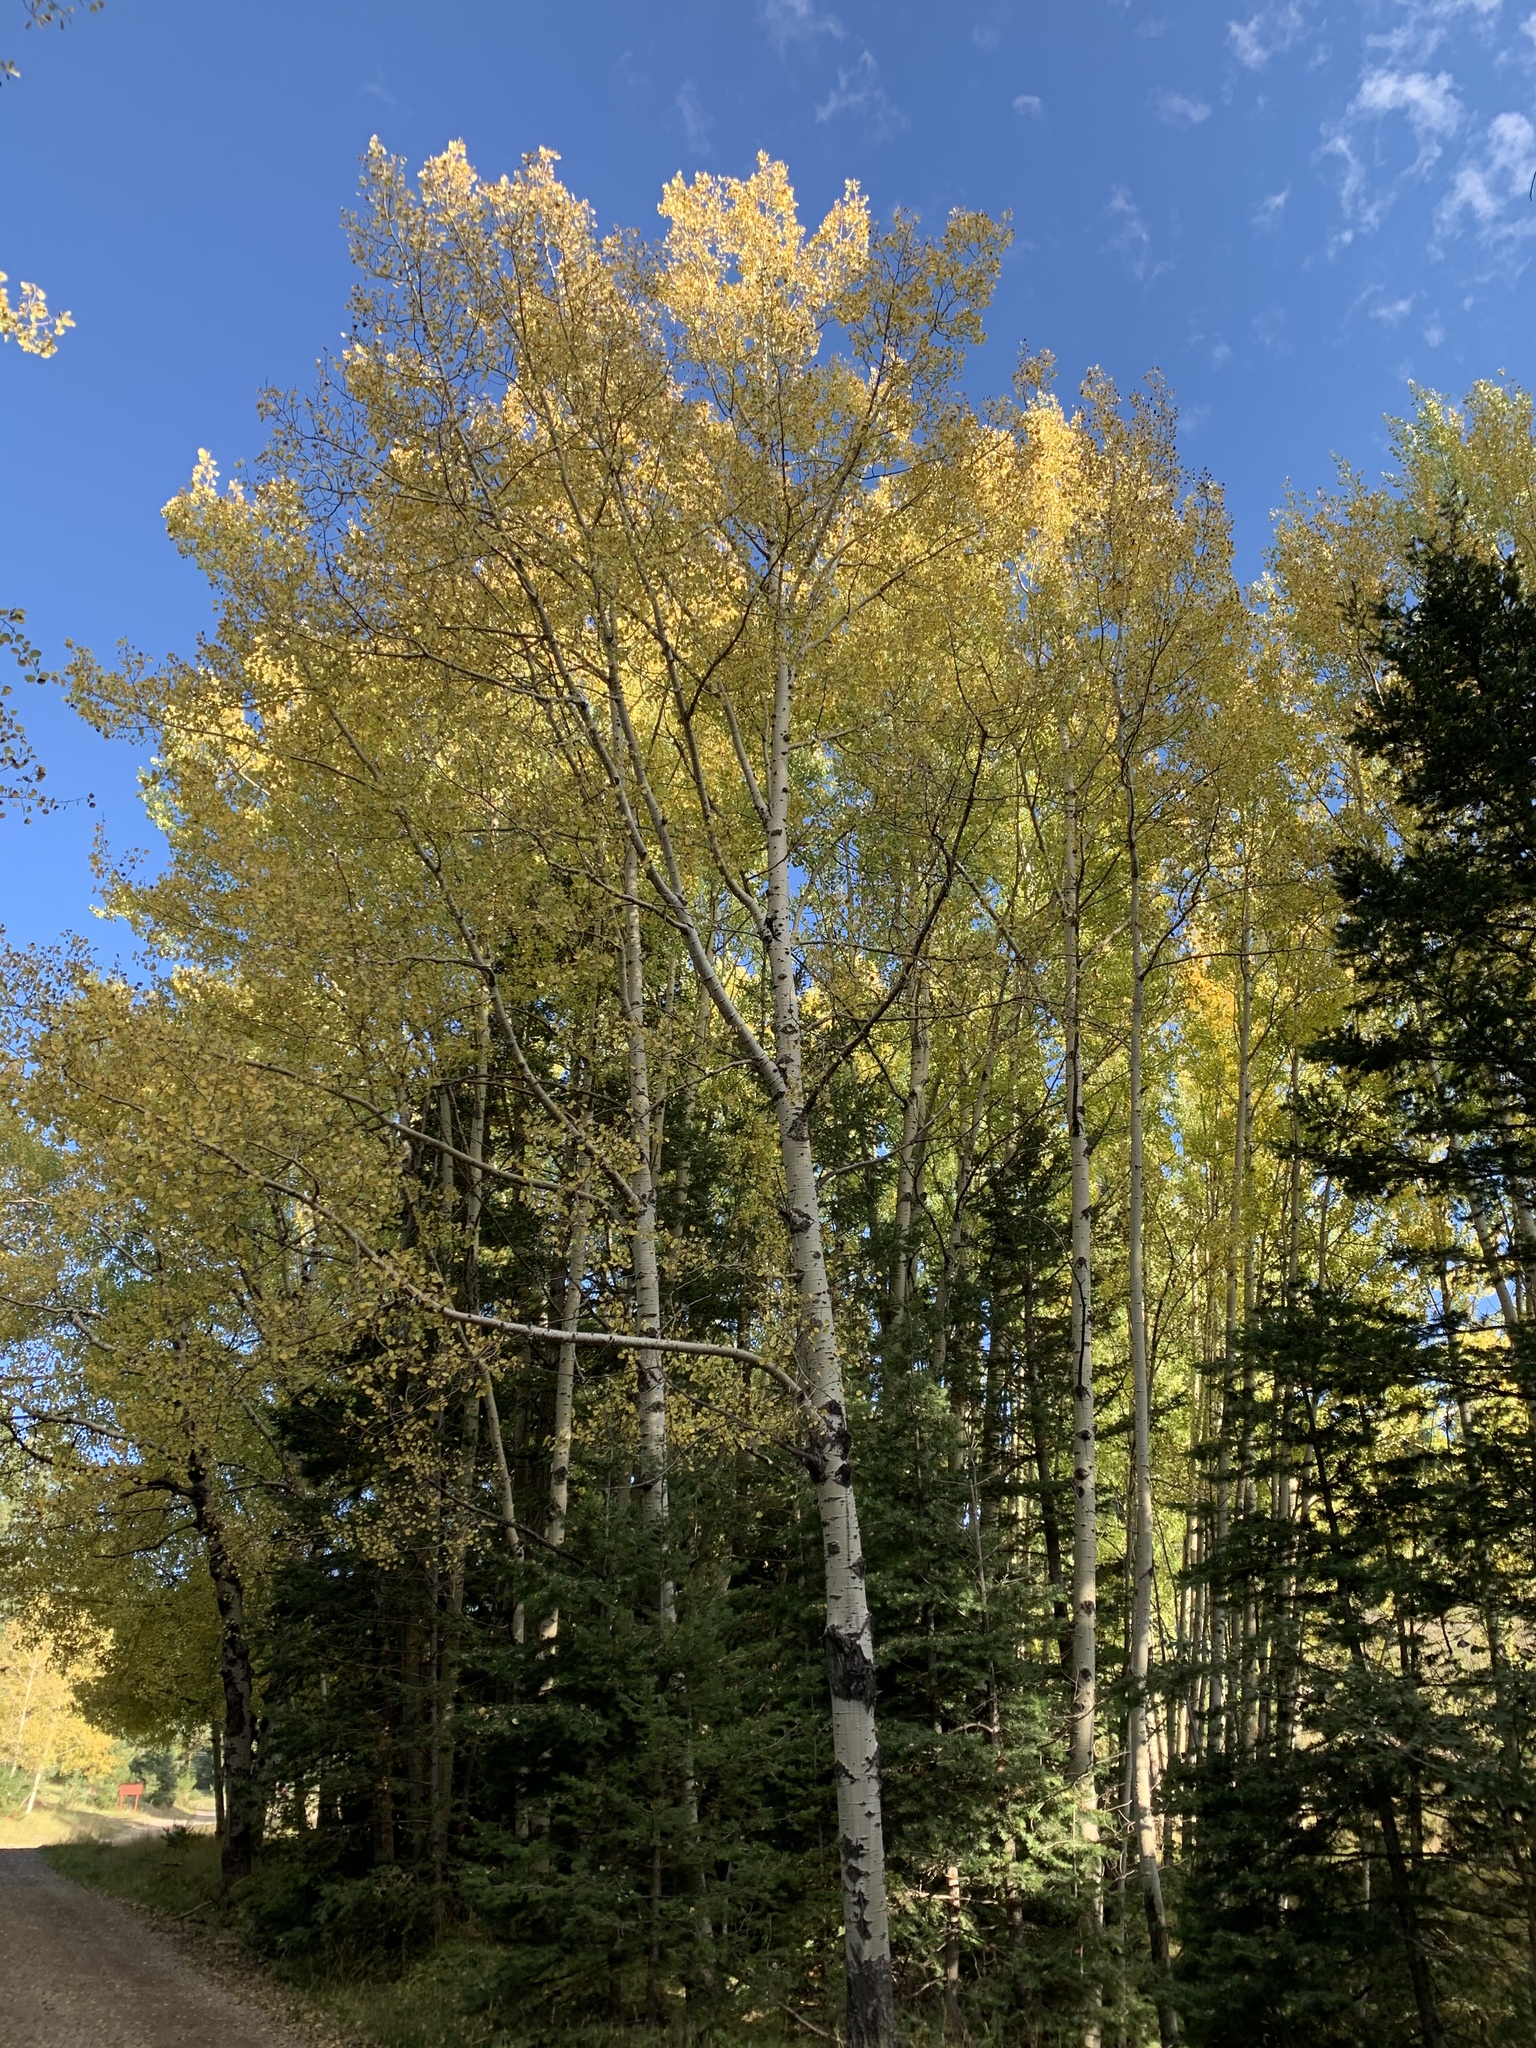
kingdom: Plantae
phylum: Tracheophyta
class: Magnoliopsida
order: Malpighiales
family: Salicaceae
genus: Populus
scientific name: Populus tremuloides
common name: Quaking aspen
